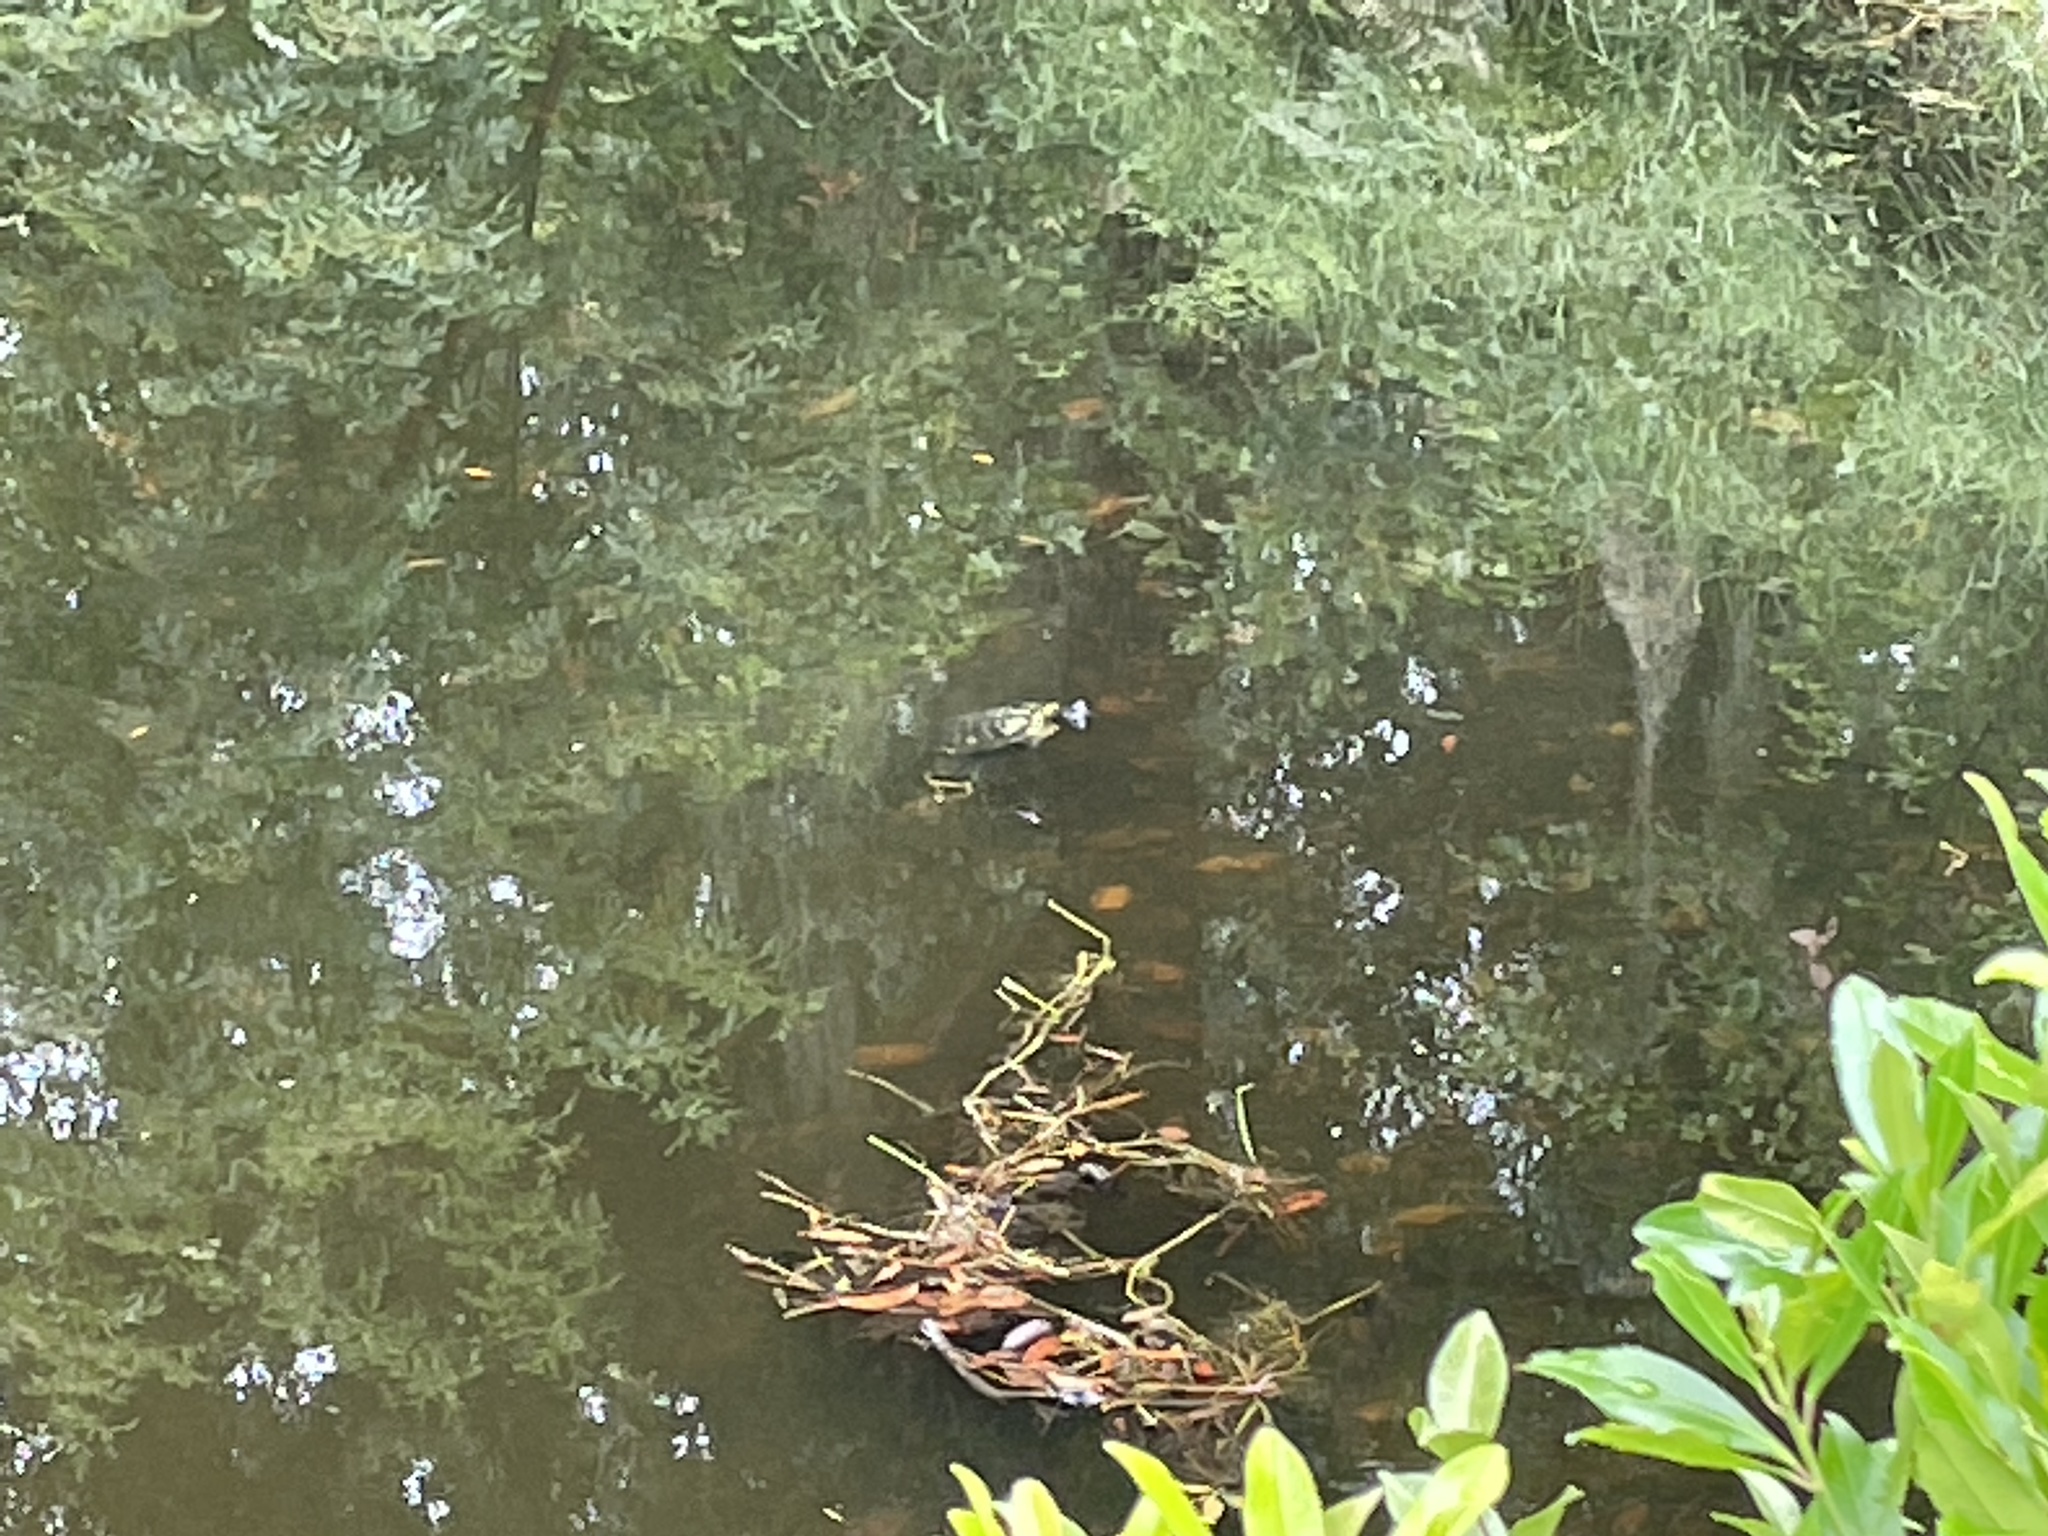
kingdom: Animalia
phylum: Chordata
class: Testudines
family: Emydidae
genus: Trachemys
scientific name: Trachemys scripta
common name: Slider
